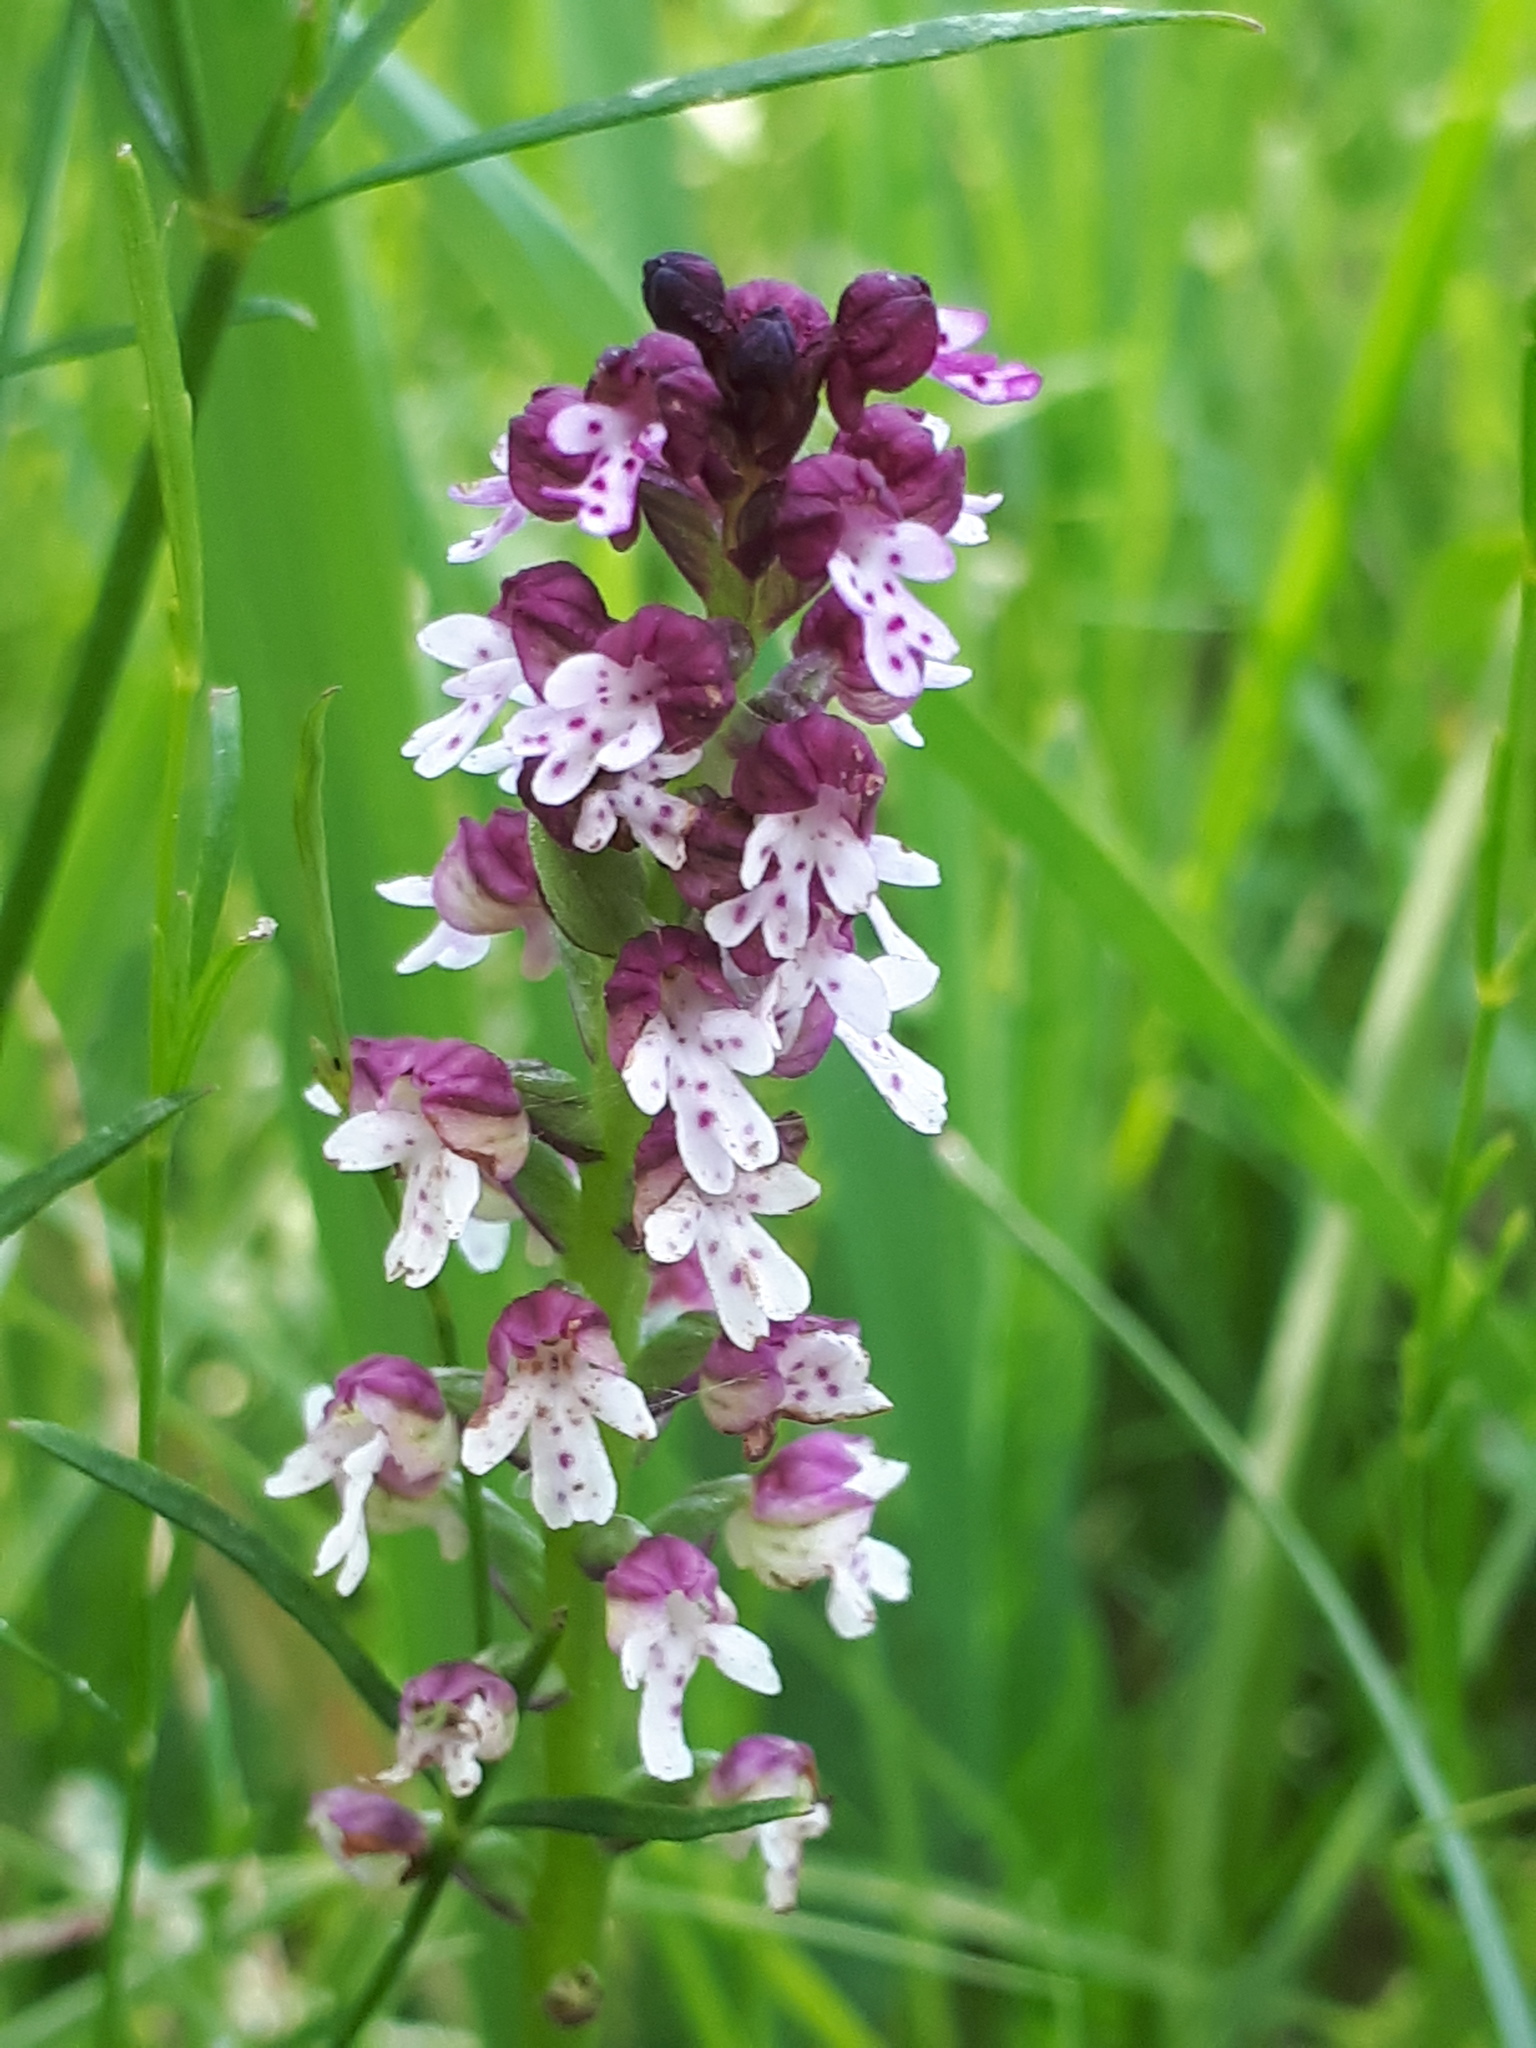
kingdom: Plantae
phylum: Tracheophyta
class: Liliopsida
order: Asparagales
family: Orchidaceae
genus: Neotinea
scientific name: Neotinea ustulata
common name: Burnt orchid
